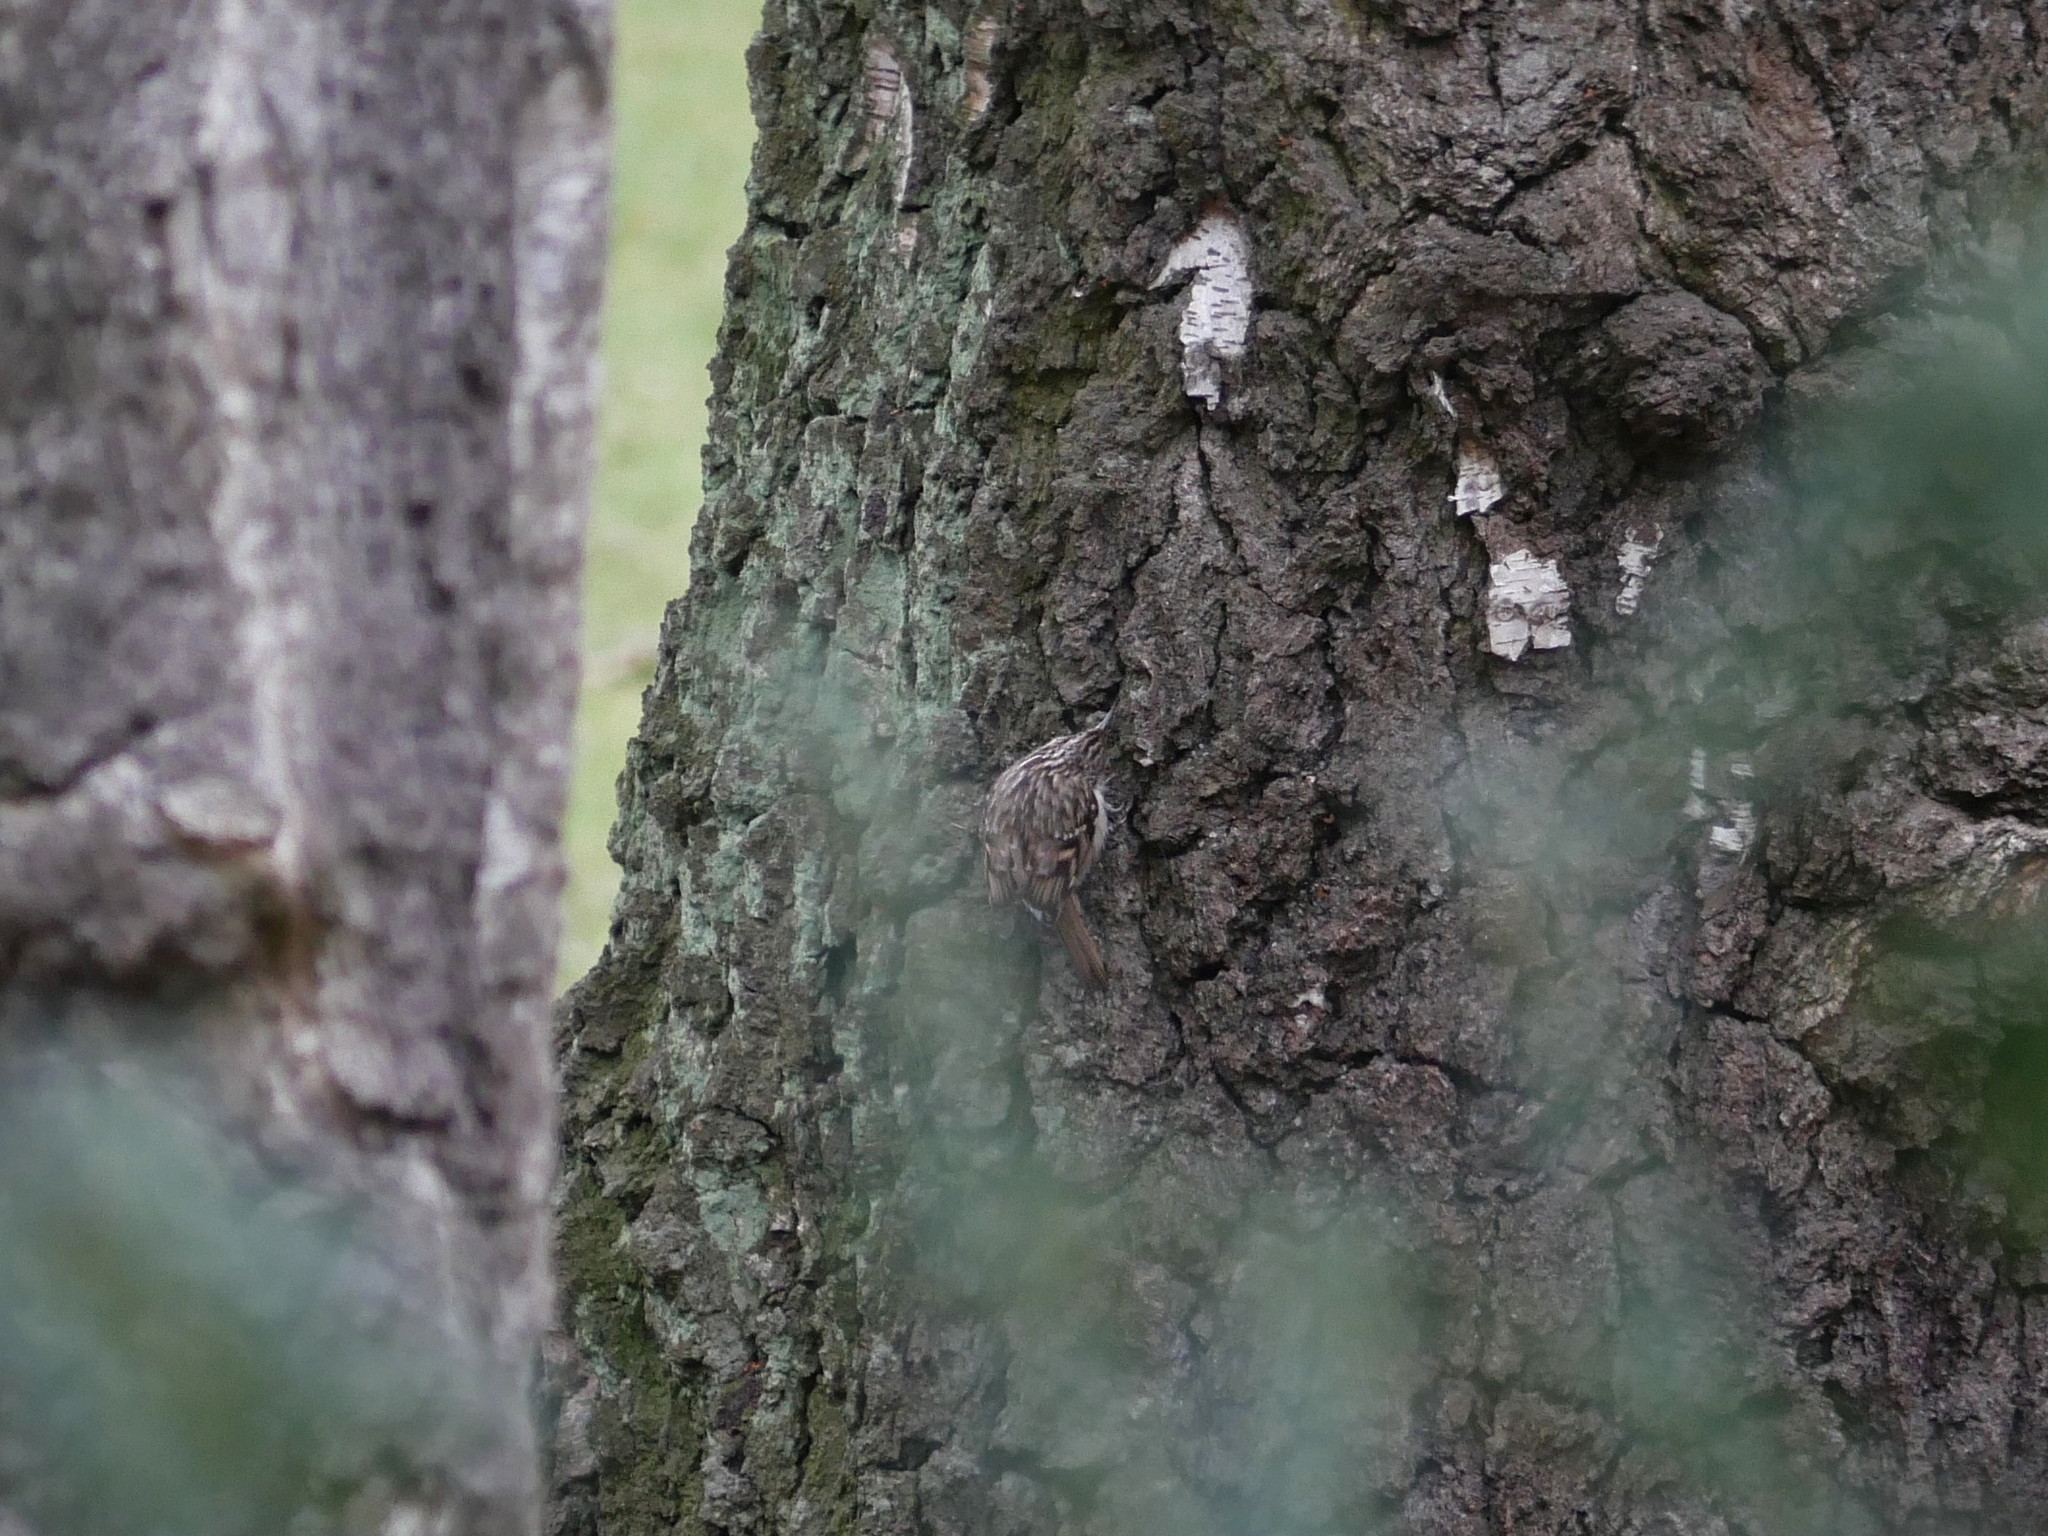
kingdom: Animalia
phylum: Chordata
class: Aves
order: Passeriformes
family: Certhiidae
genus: Certhia
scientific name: Certhia familiaris
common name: Eurasian treecreeper
